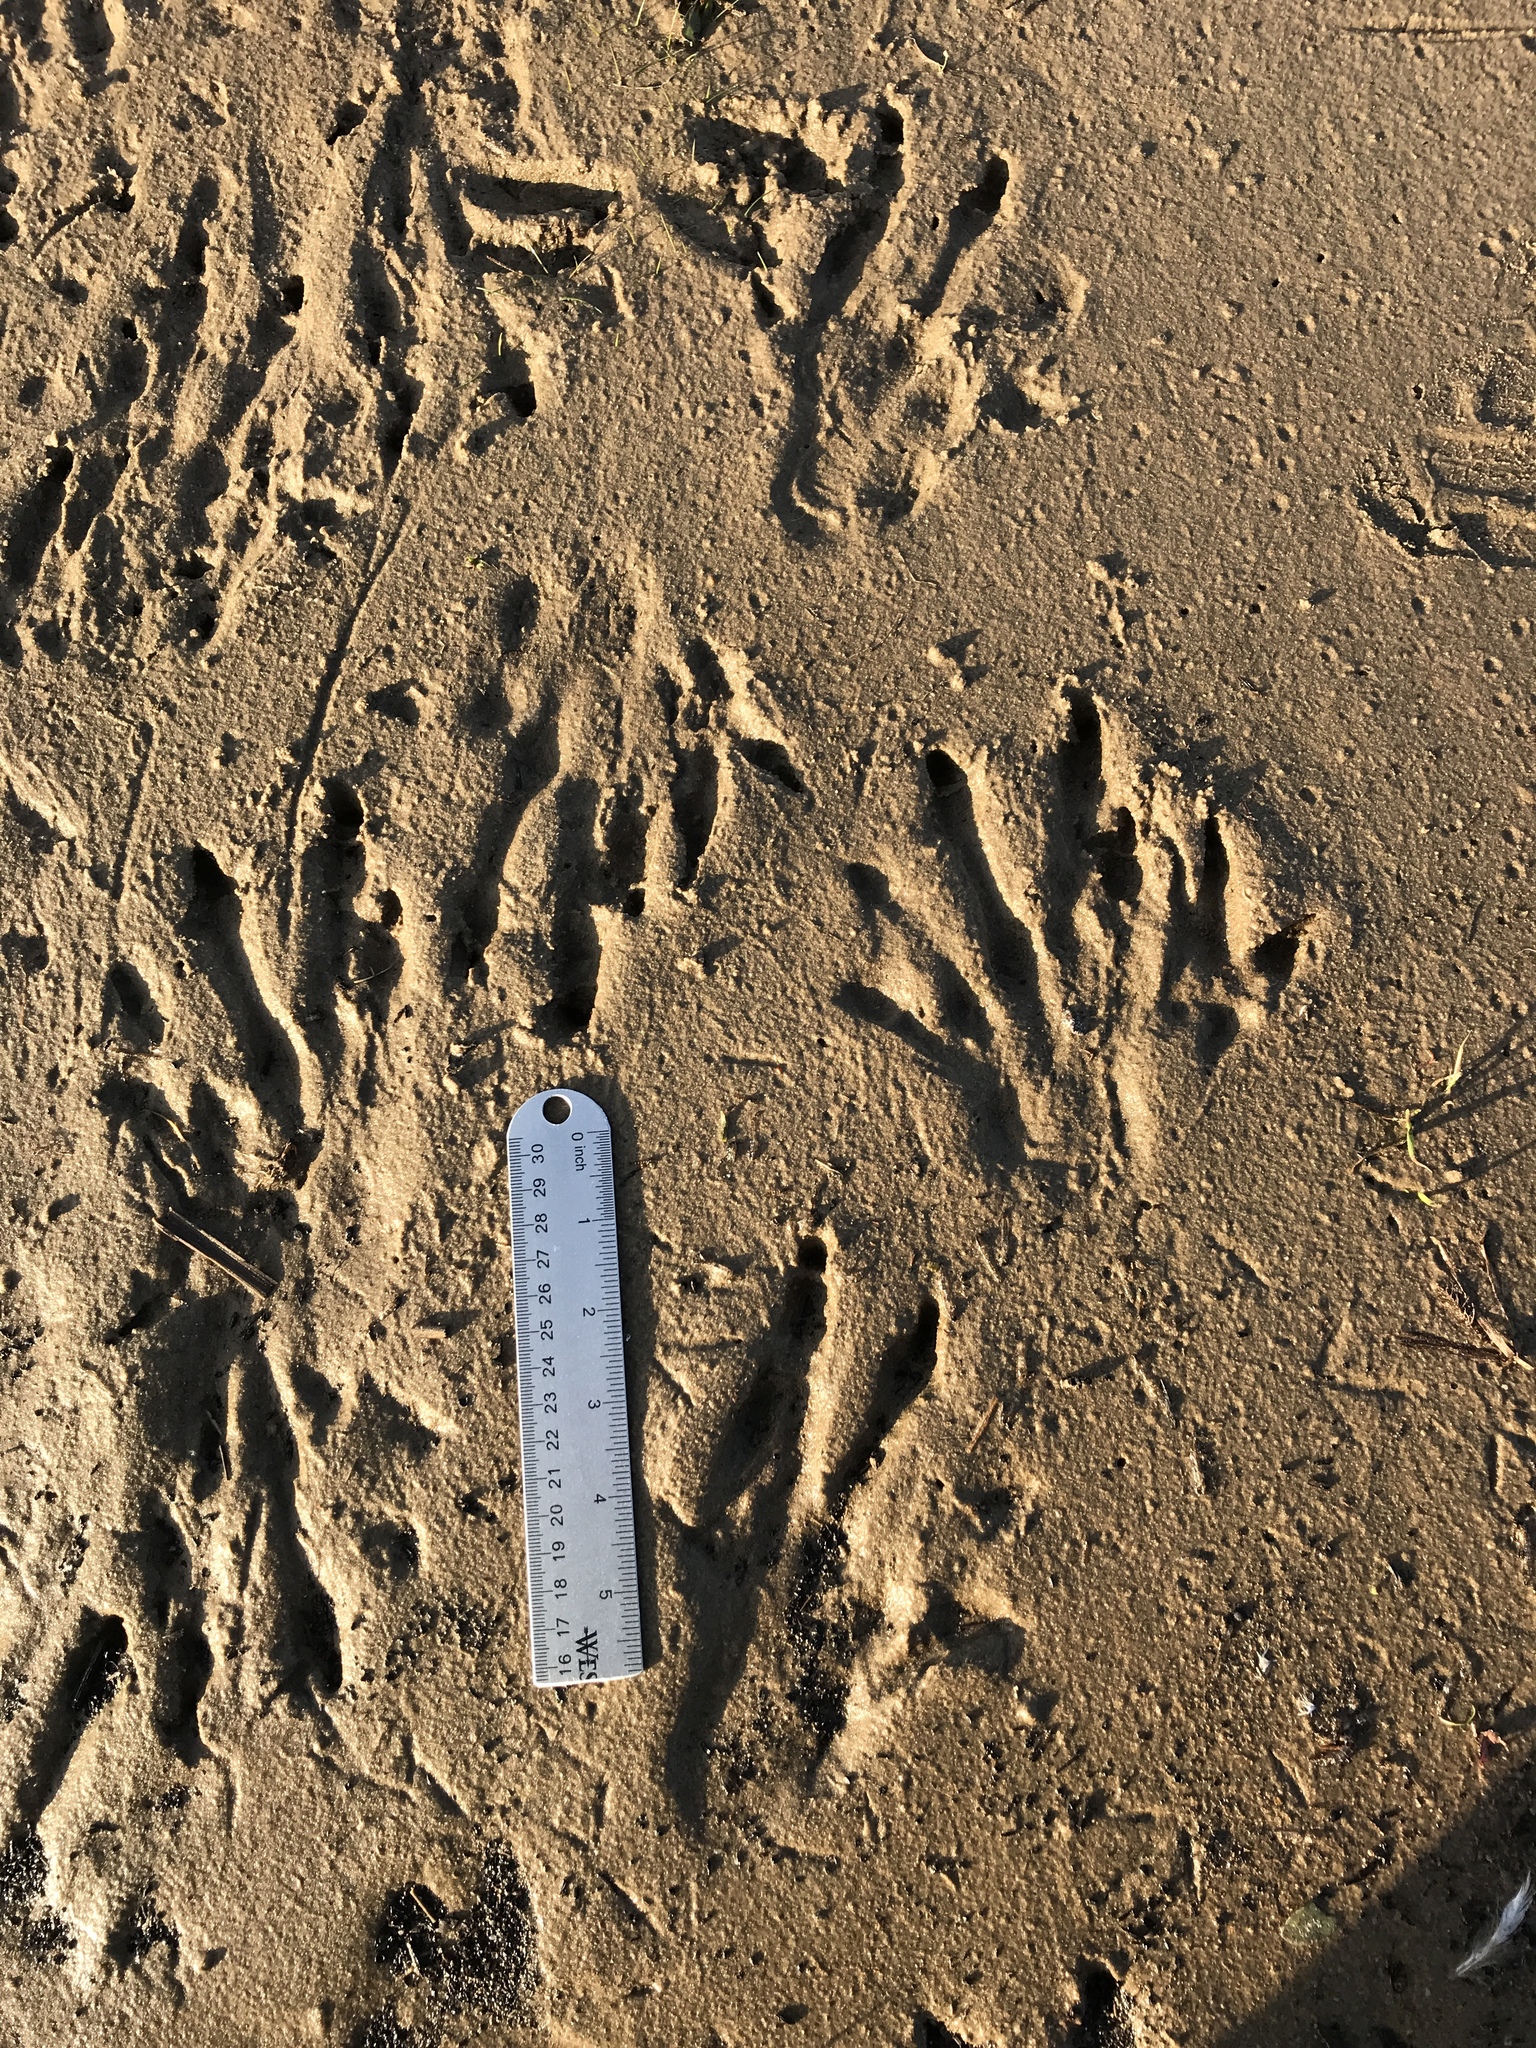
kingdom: Animalia
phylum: Chordata
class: Mammalia
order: Rodentia
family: Castoridae
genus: Castor
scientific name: Castor canadensis
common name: American beaver
